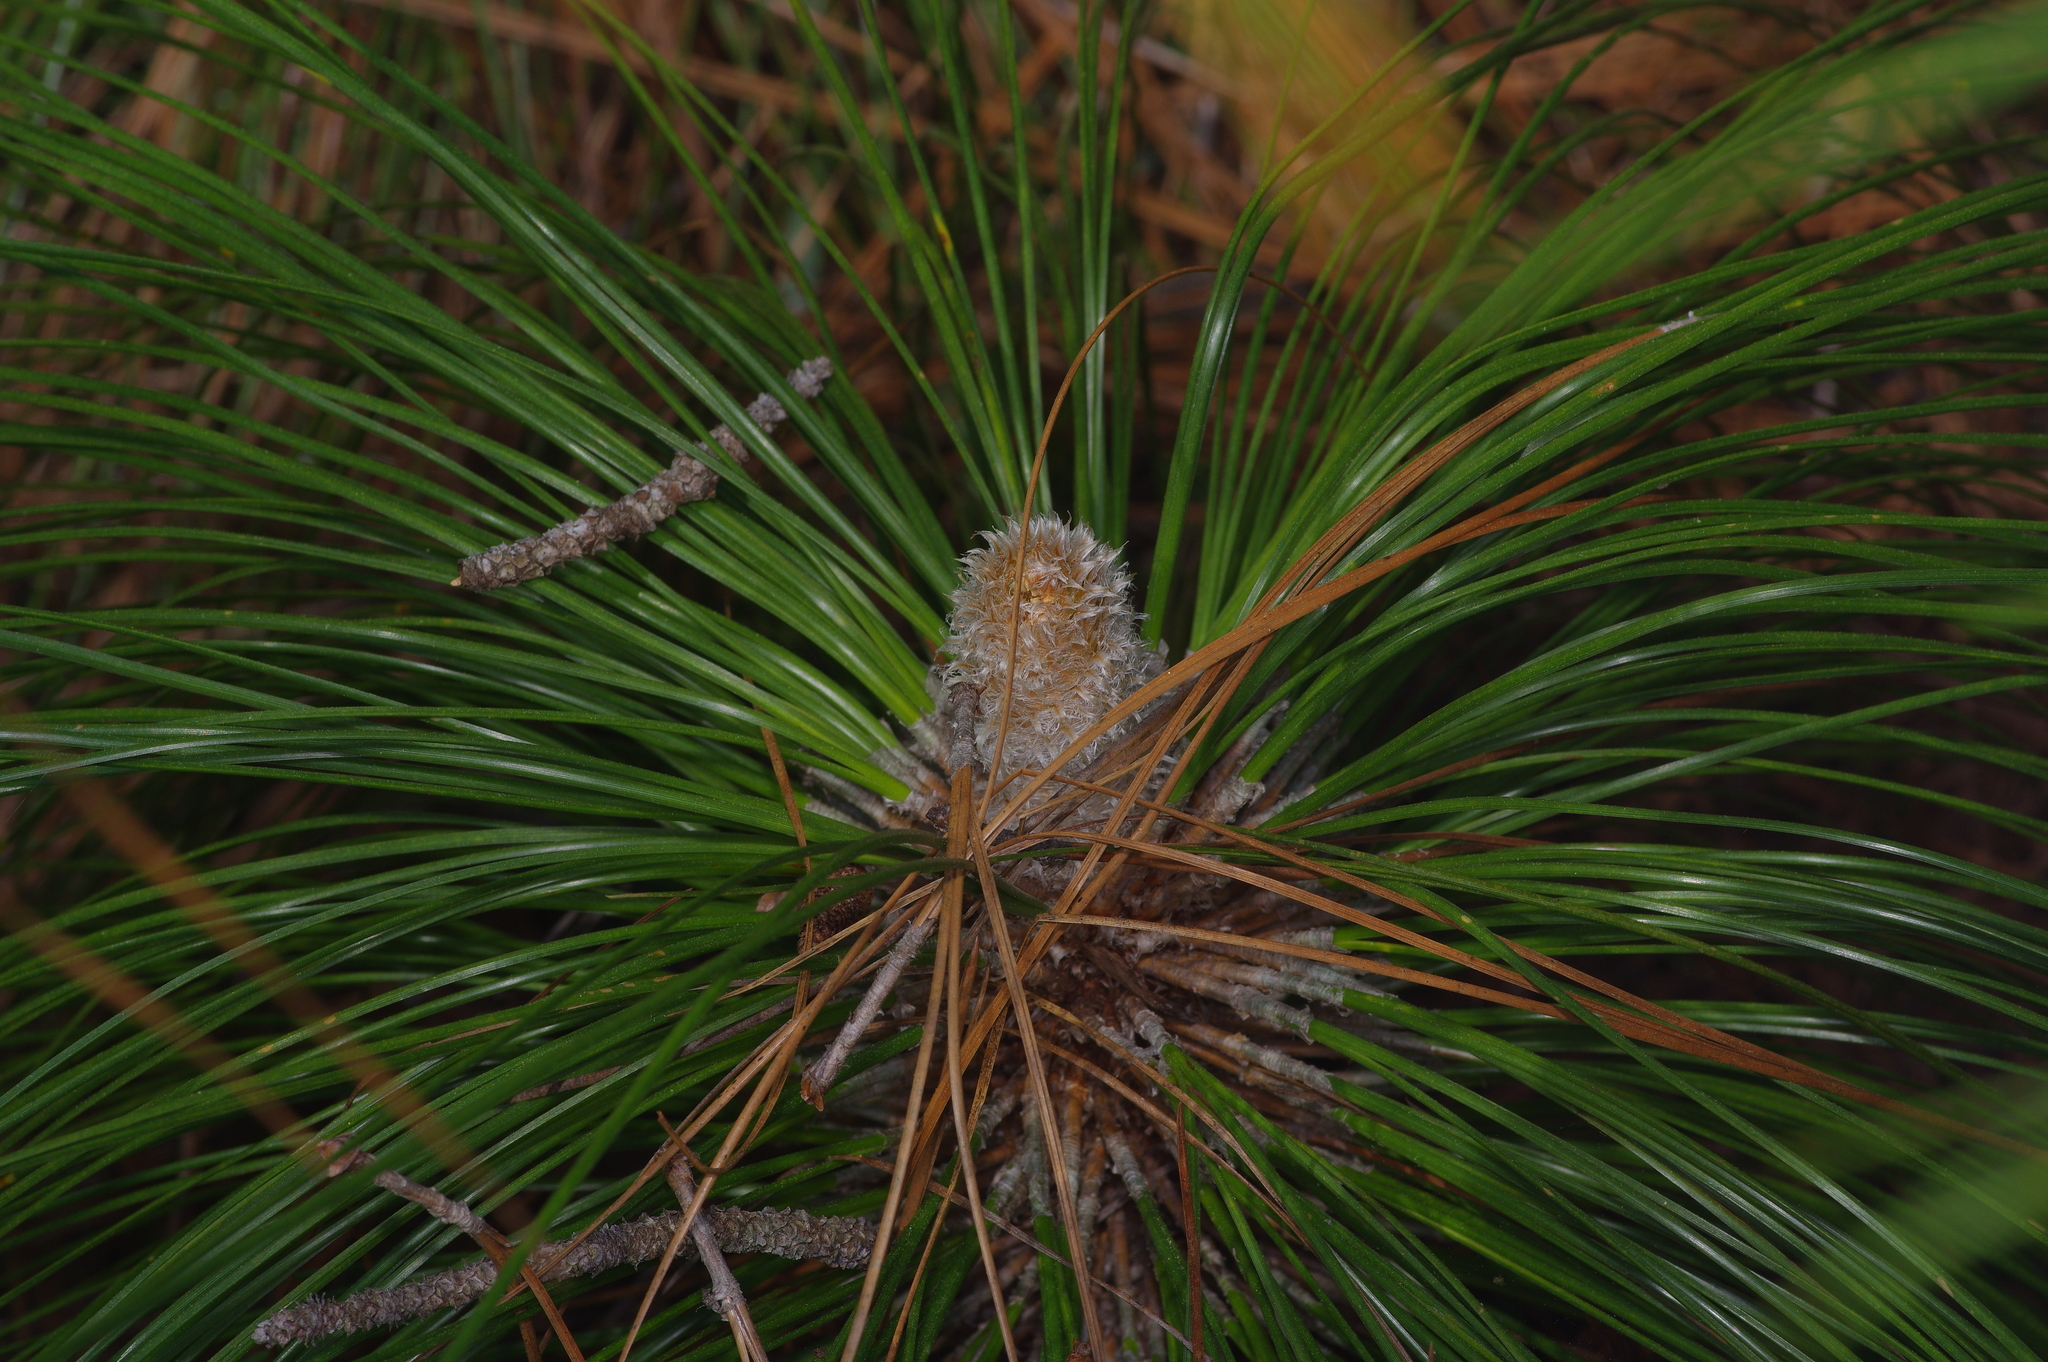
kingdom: Plantae
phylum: Tracheophyta
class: Pinopsida
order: Pinales
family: Pinaceae
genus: Pinus
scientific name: Pinus palustris
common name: Longleaf pine
